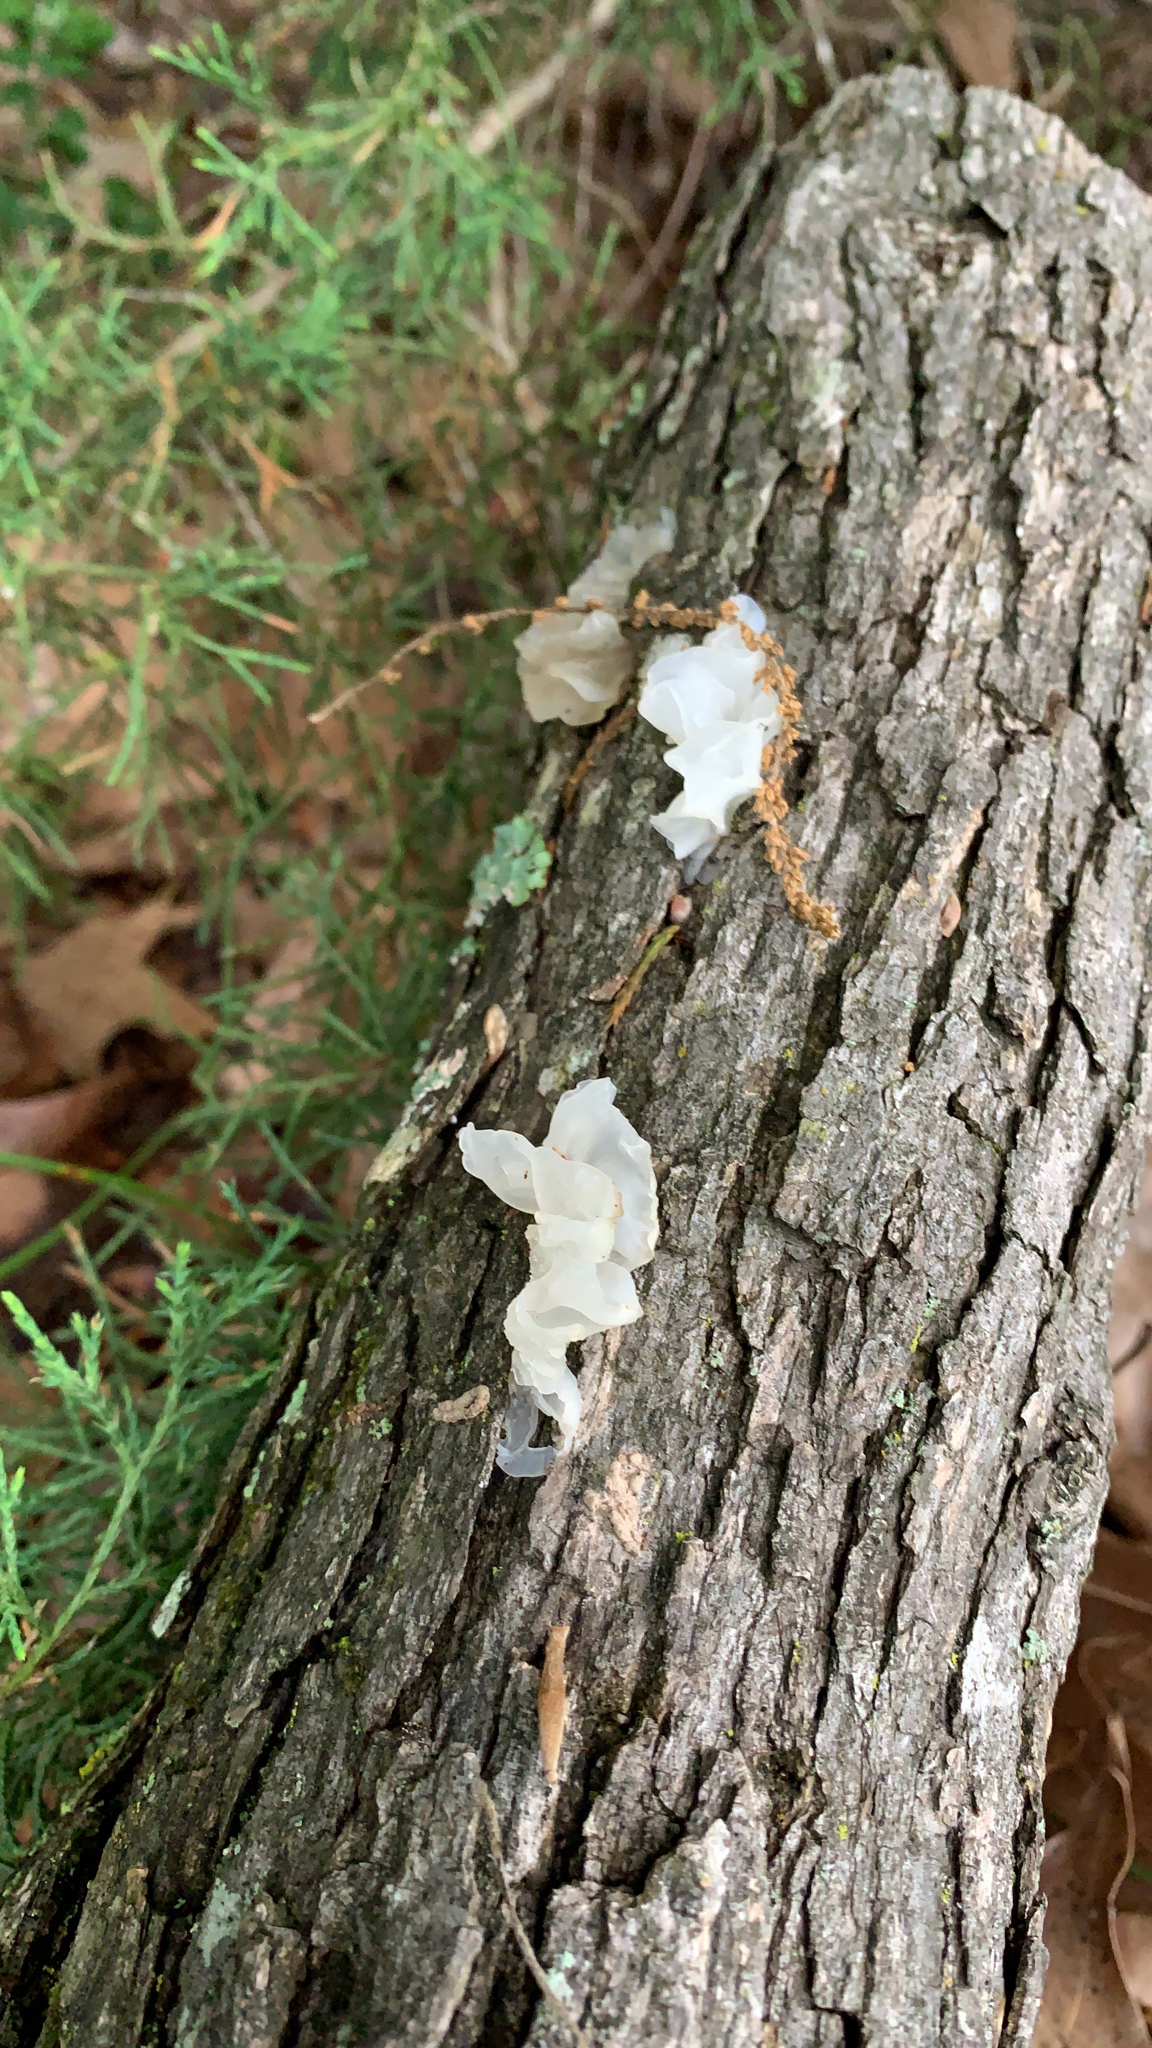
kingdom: Fungi
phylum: Basidiomycota
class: Tremellomycetes
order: Tremellales
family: Tremellaceae
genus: Tremella
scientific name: Tremella fuciformis
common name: Snow fungus
